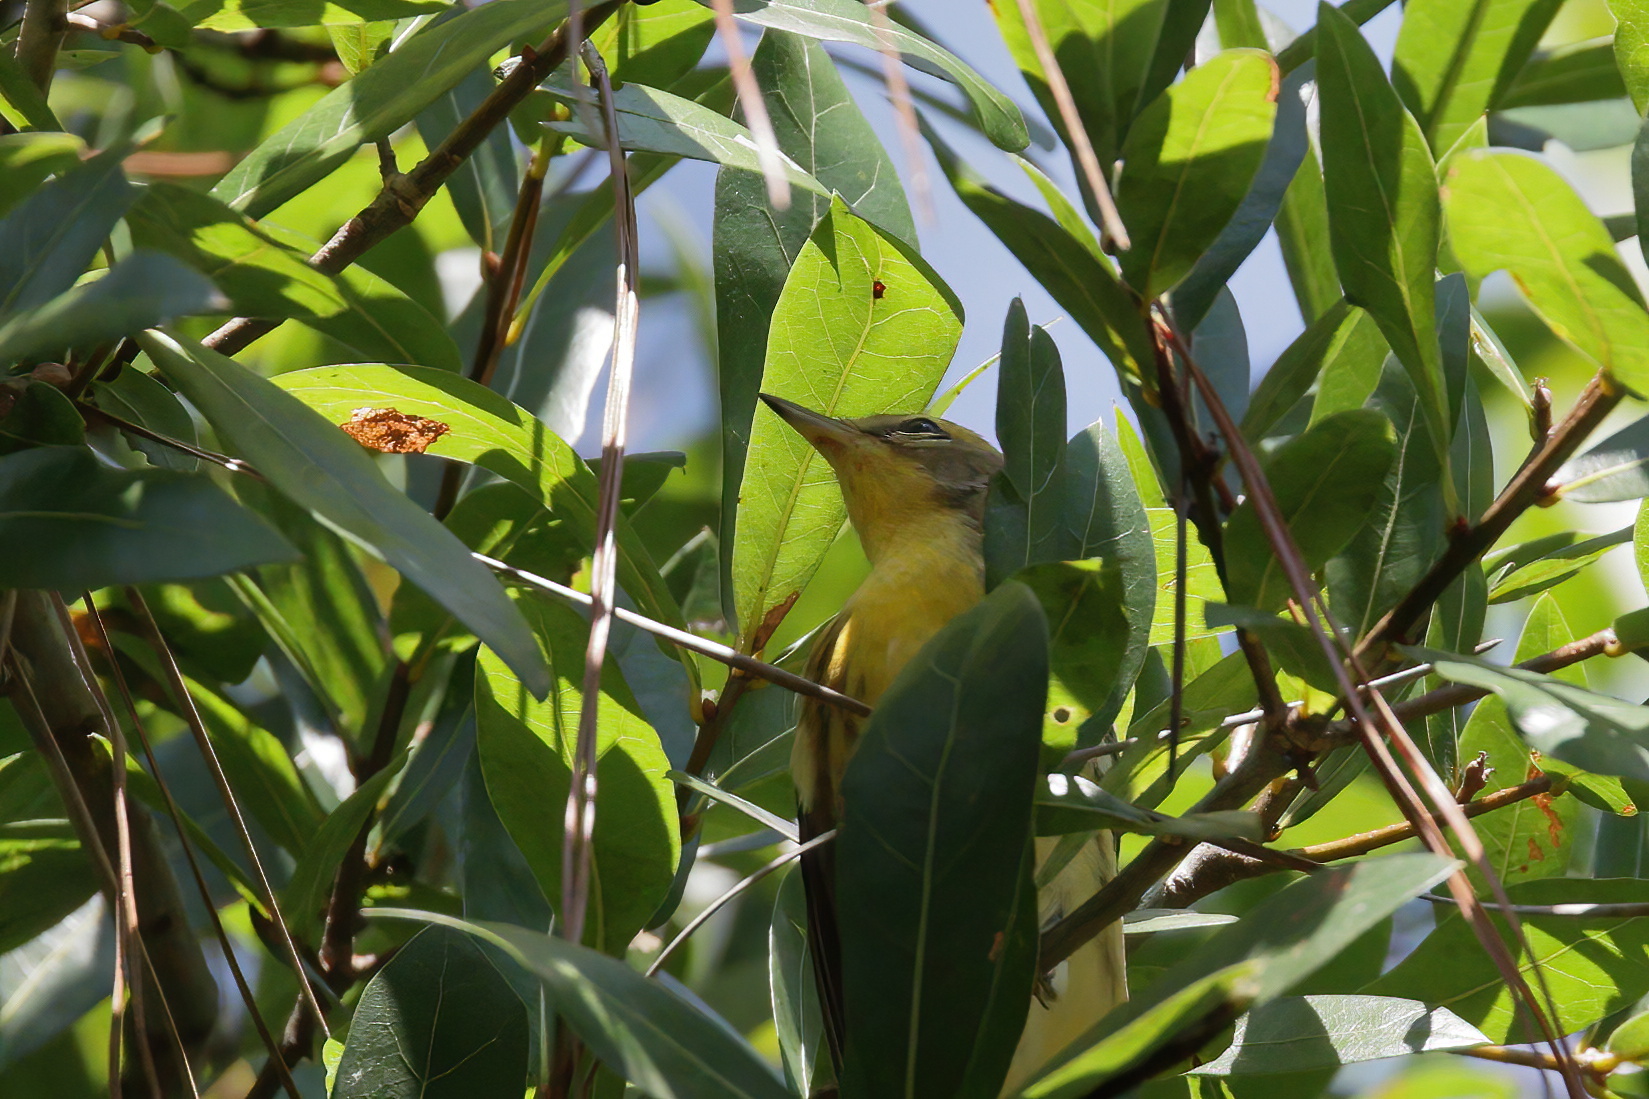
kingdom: Animalia
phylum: Chordata
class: Aves
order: Passeriformes
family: Parulidae
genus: Setophaga
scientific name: Setophaga discolor
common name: Prairie warbler
